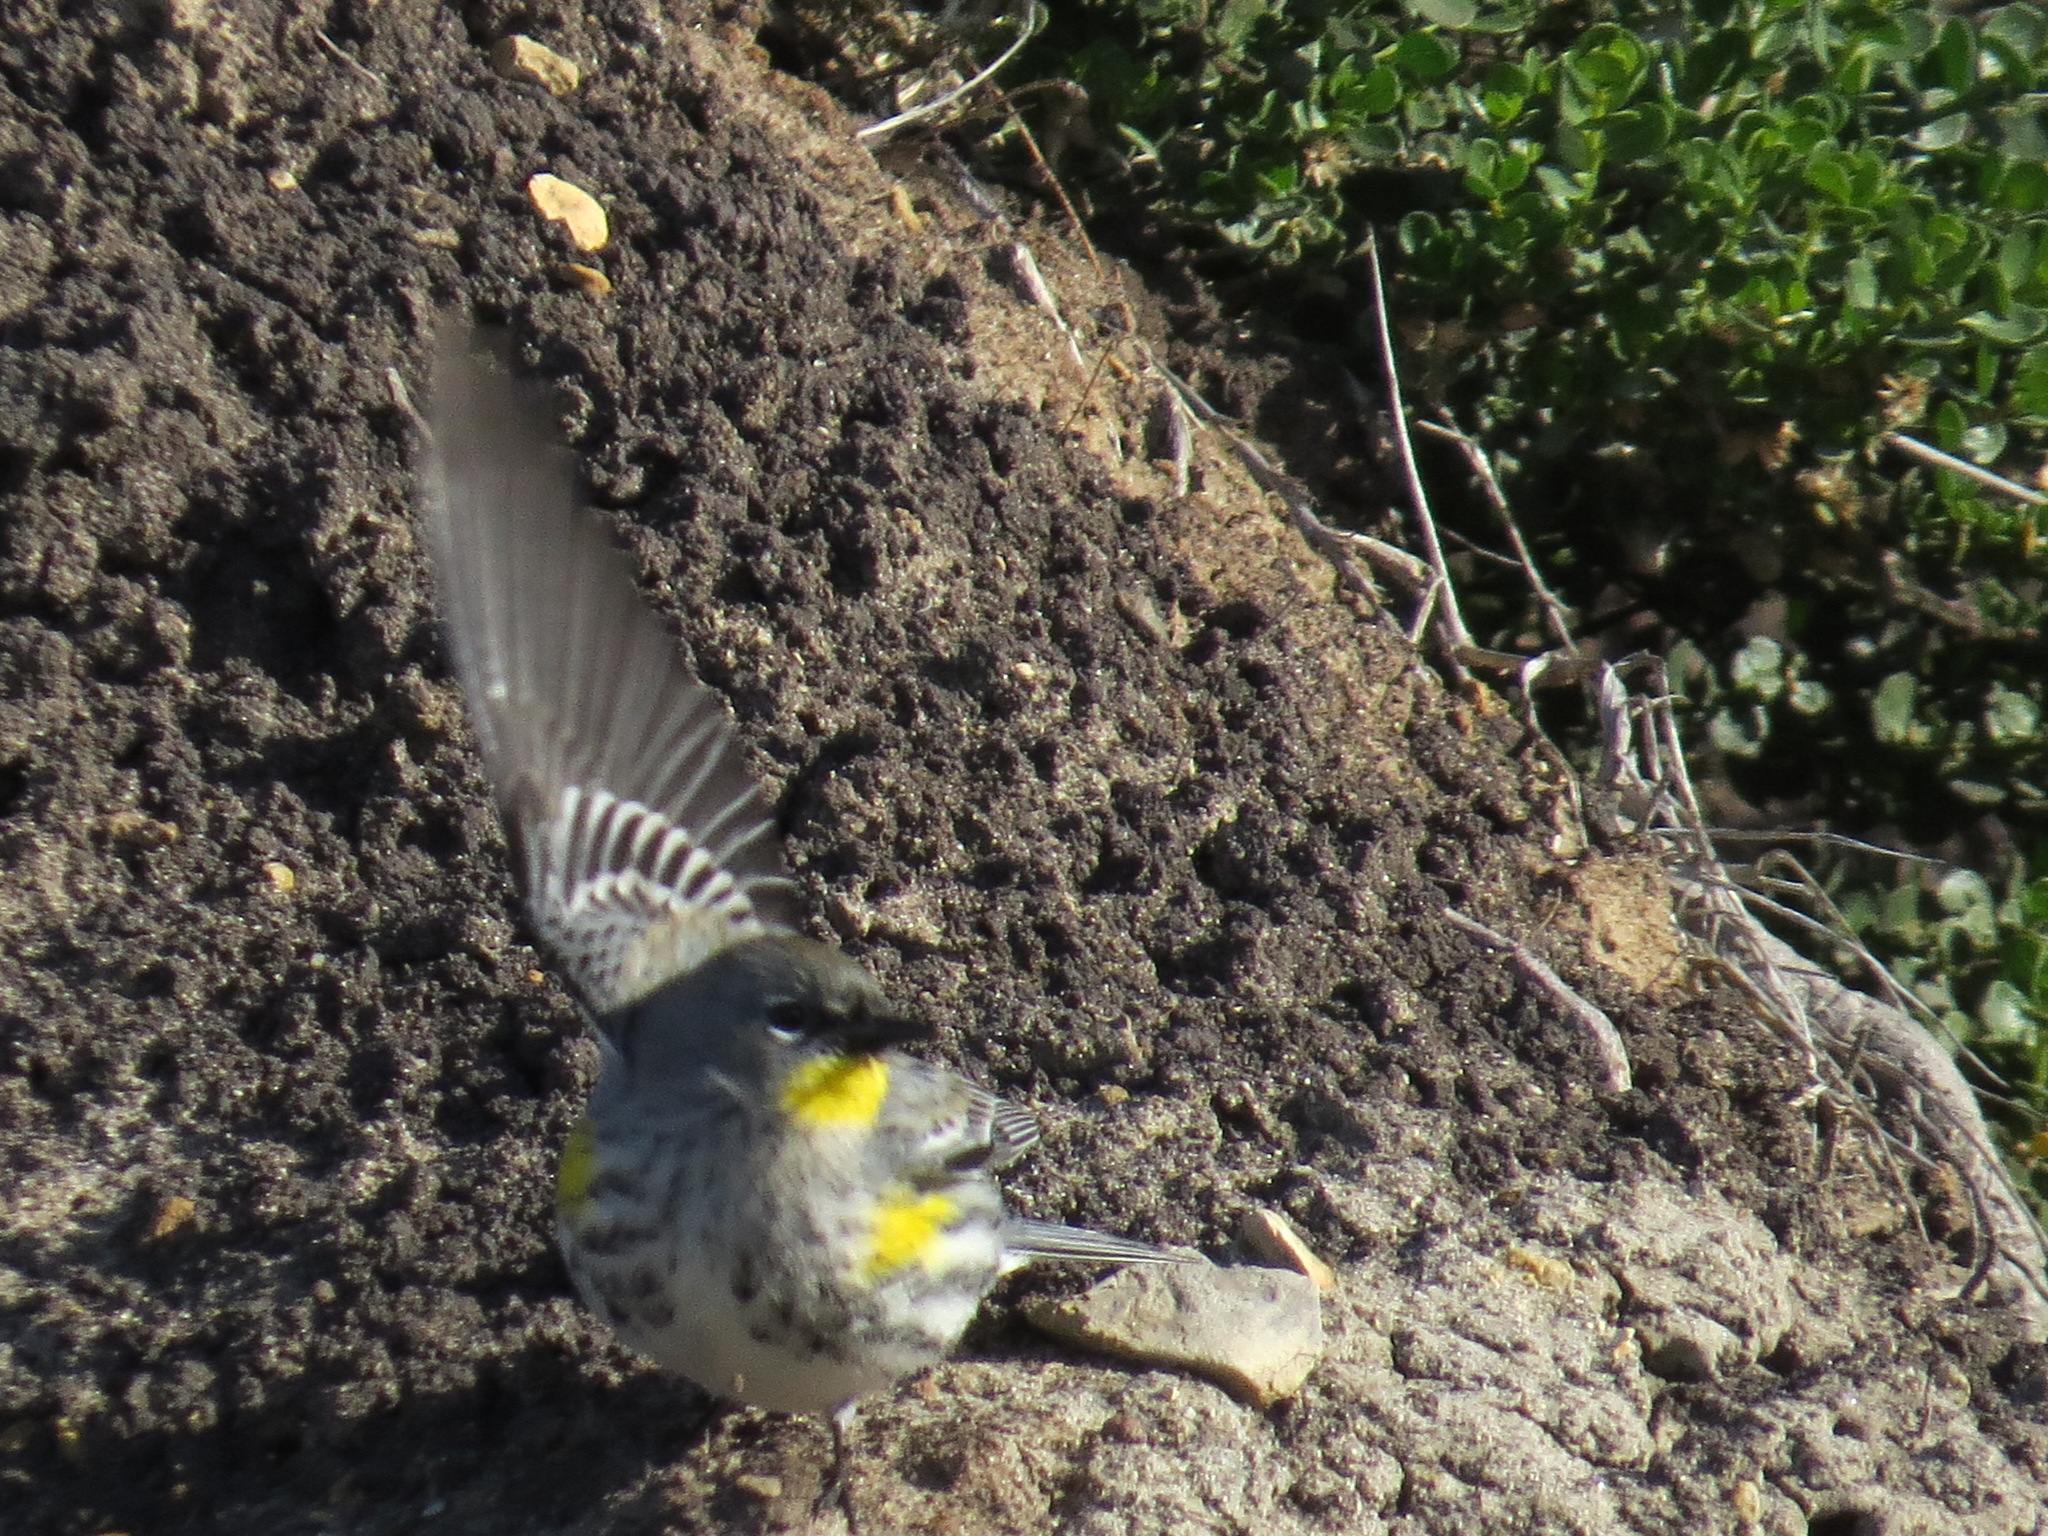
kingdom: Animalia
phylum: Chordata
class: Aves
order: Passeriformes
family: Parulidae
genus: Setophaga
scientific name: Setophaga auduboni
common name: Audubon's warbler
